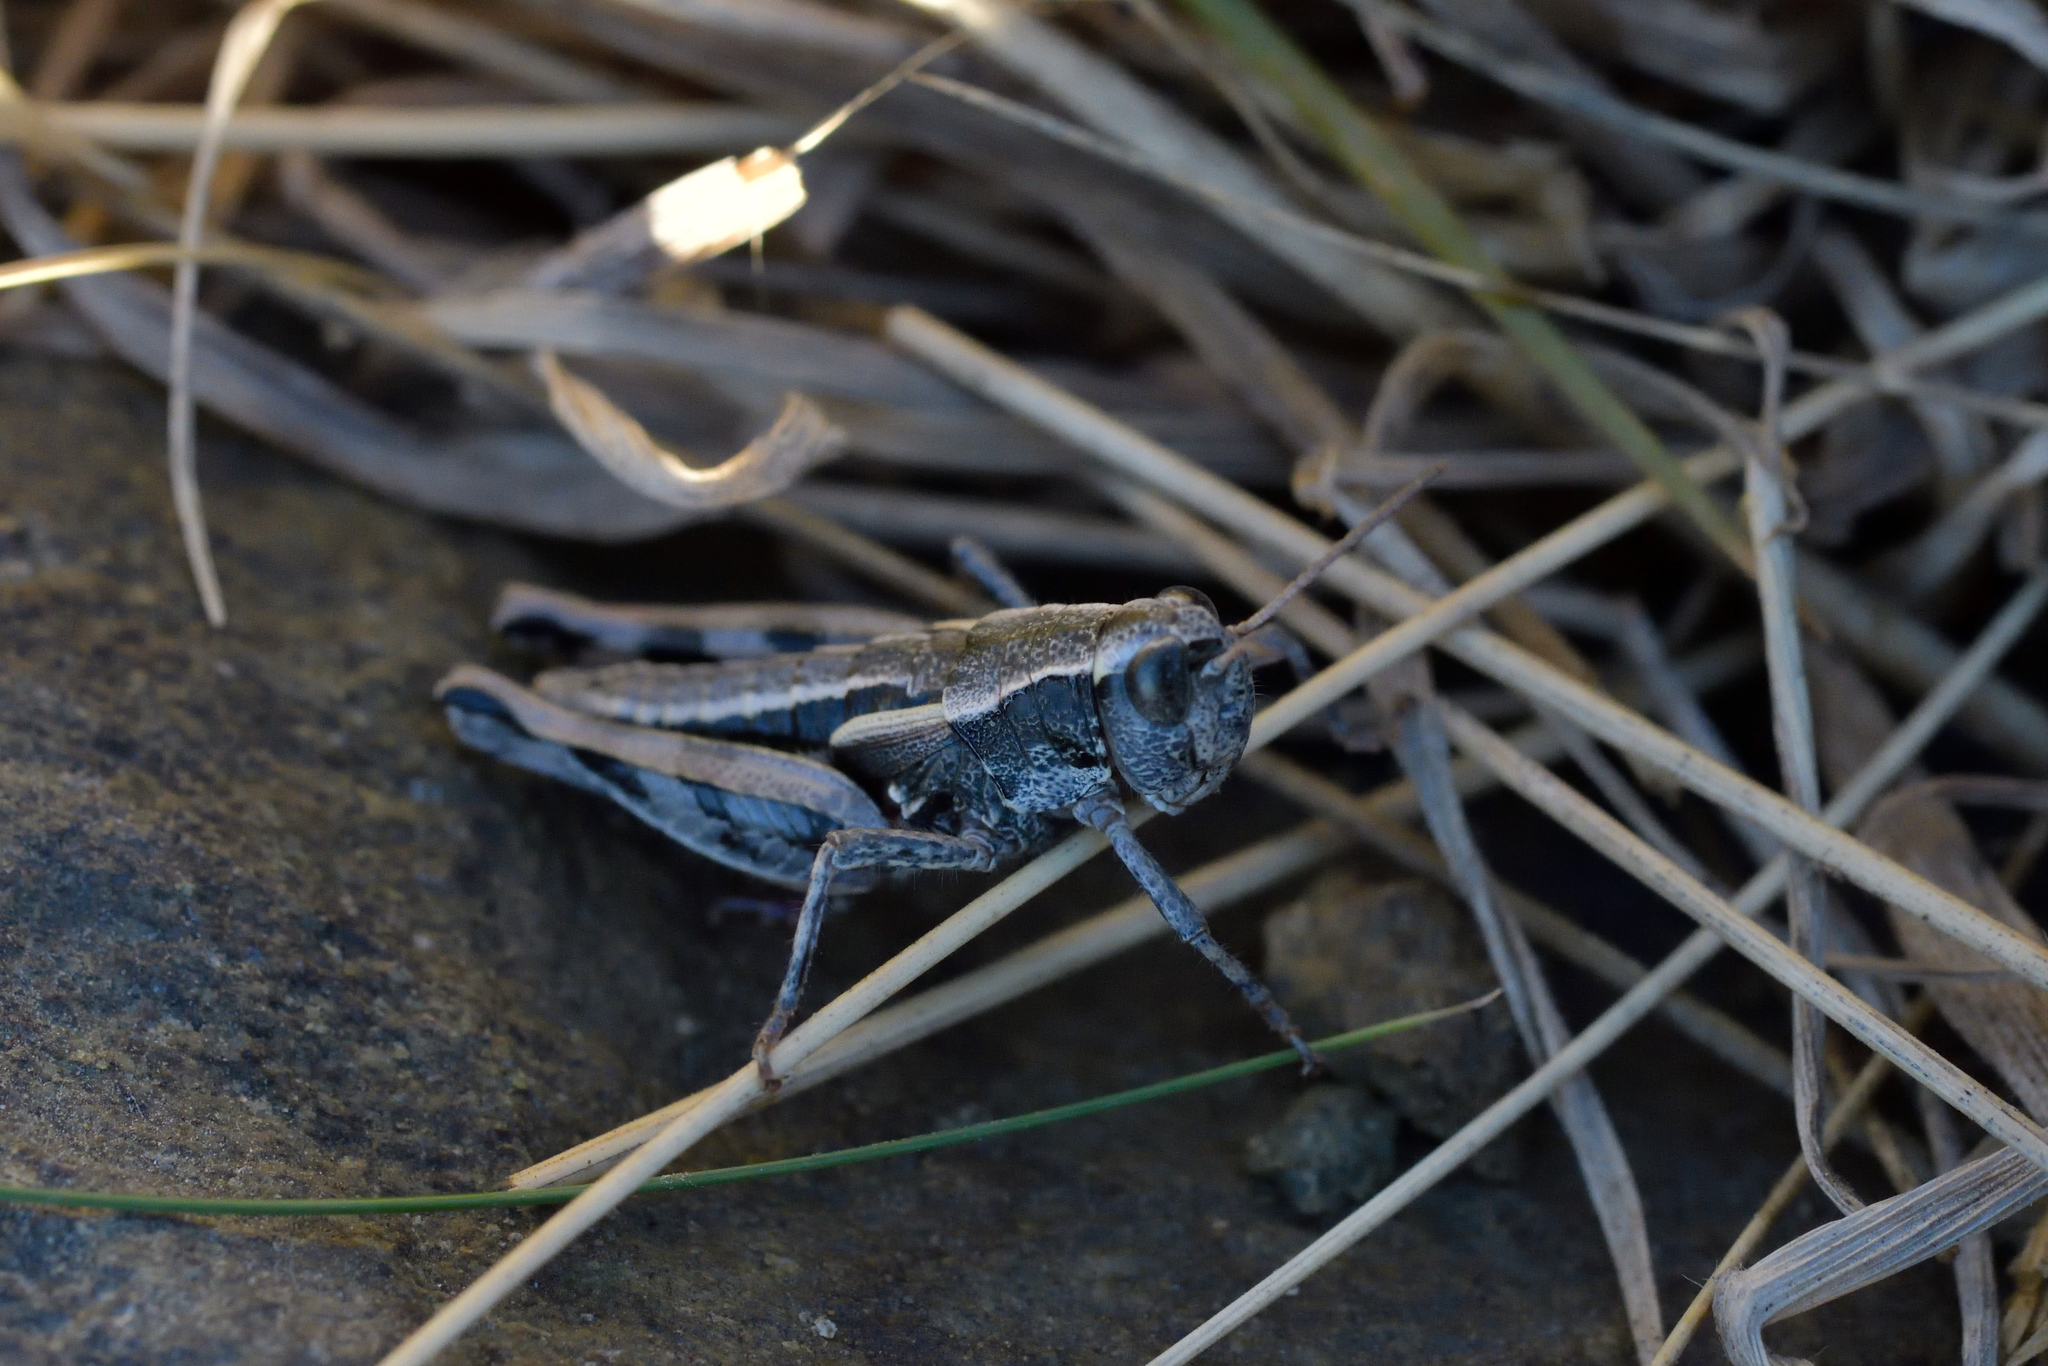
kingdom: Animalia
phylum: Arthropoda
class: Insecta
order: Orthoptera
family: Acrididae
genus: Sigaus
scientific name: Sigaus australis
